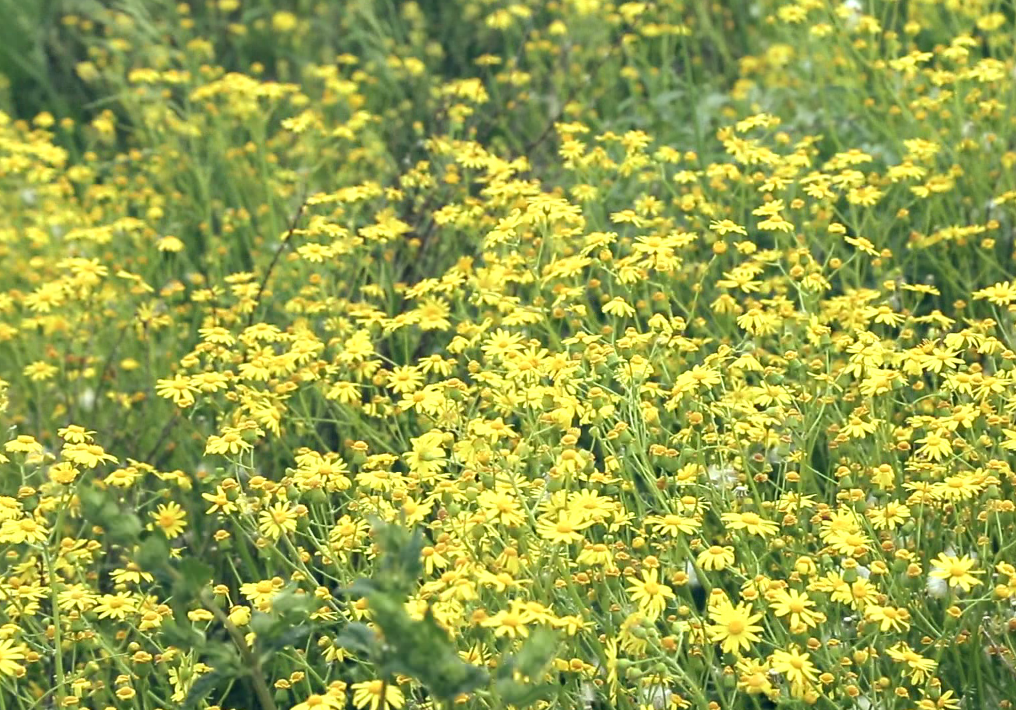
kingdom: Plantae
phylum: Tracheophyta
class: Magnoliopsida
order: Asterales
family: Asteraceae
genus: Senecio
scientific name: Senecio vernalis
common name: Eastern groundsel
